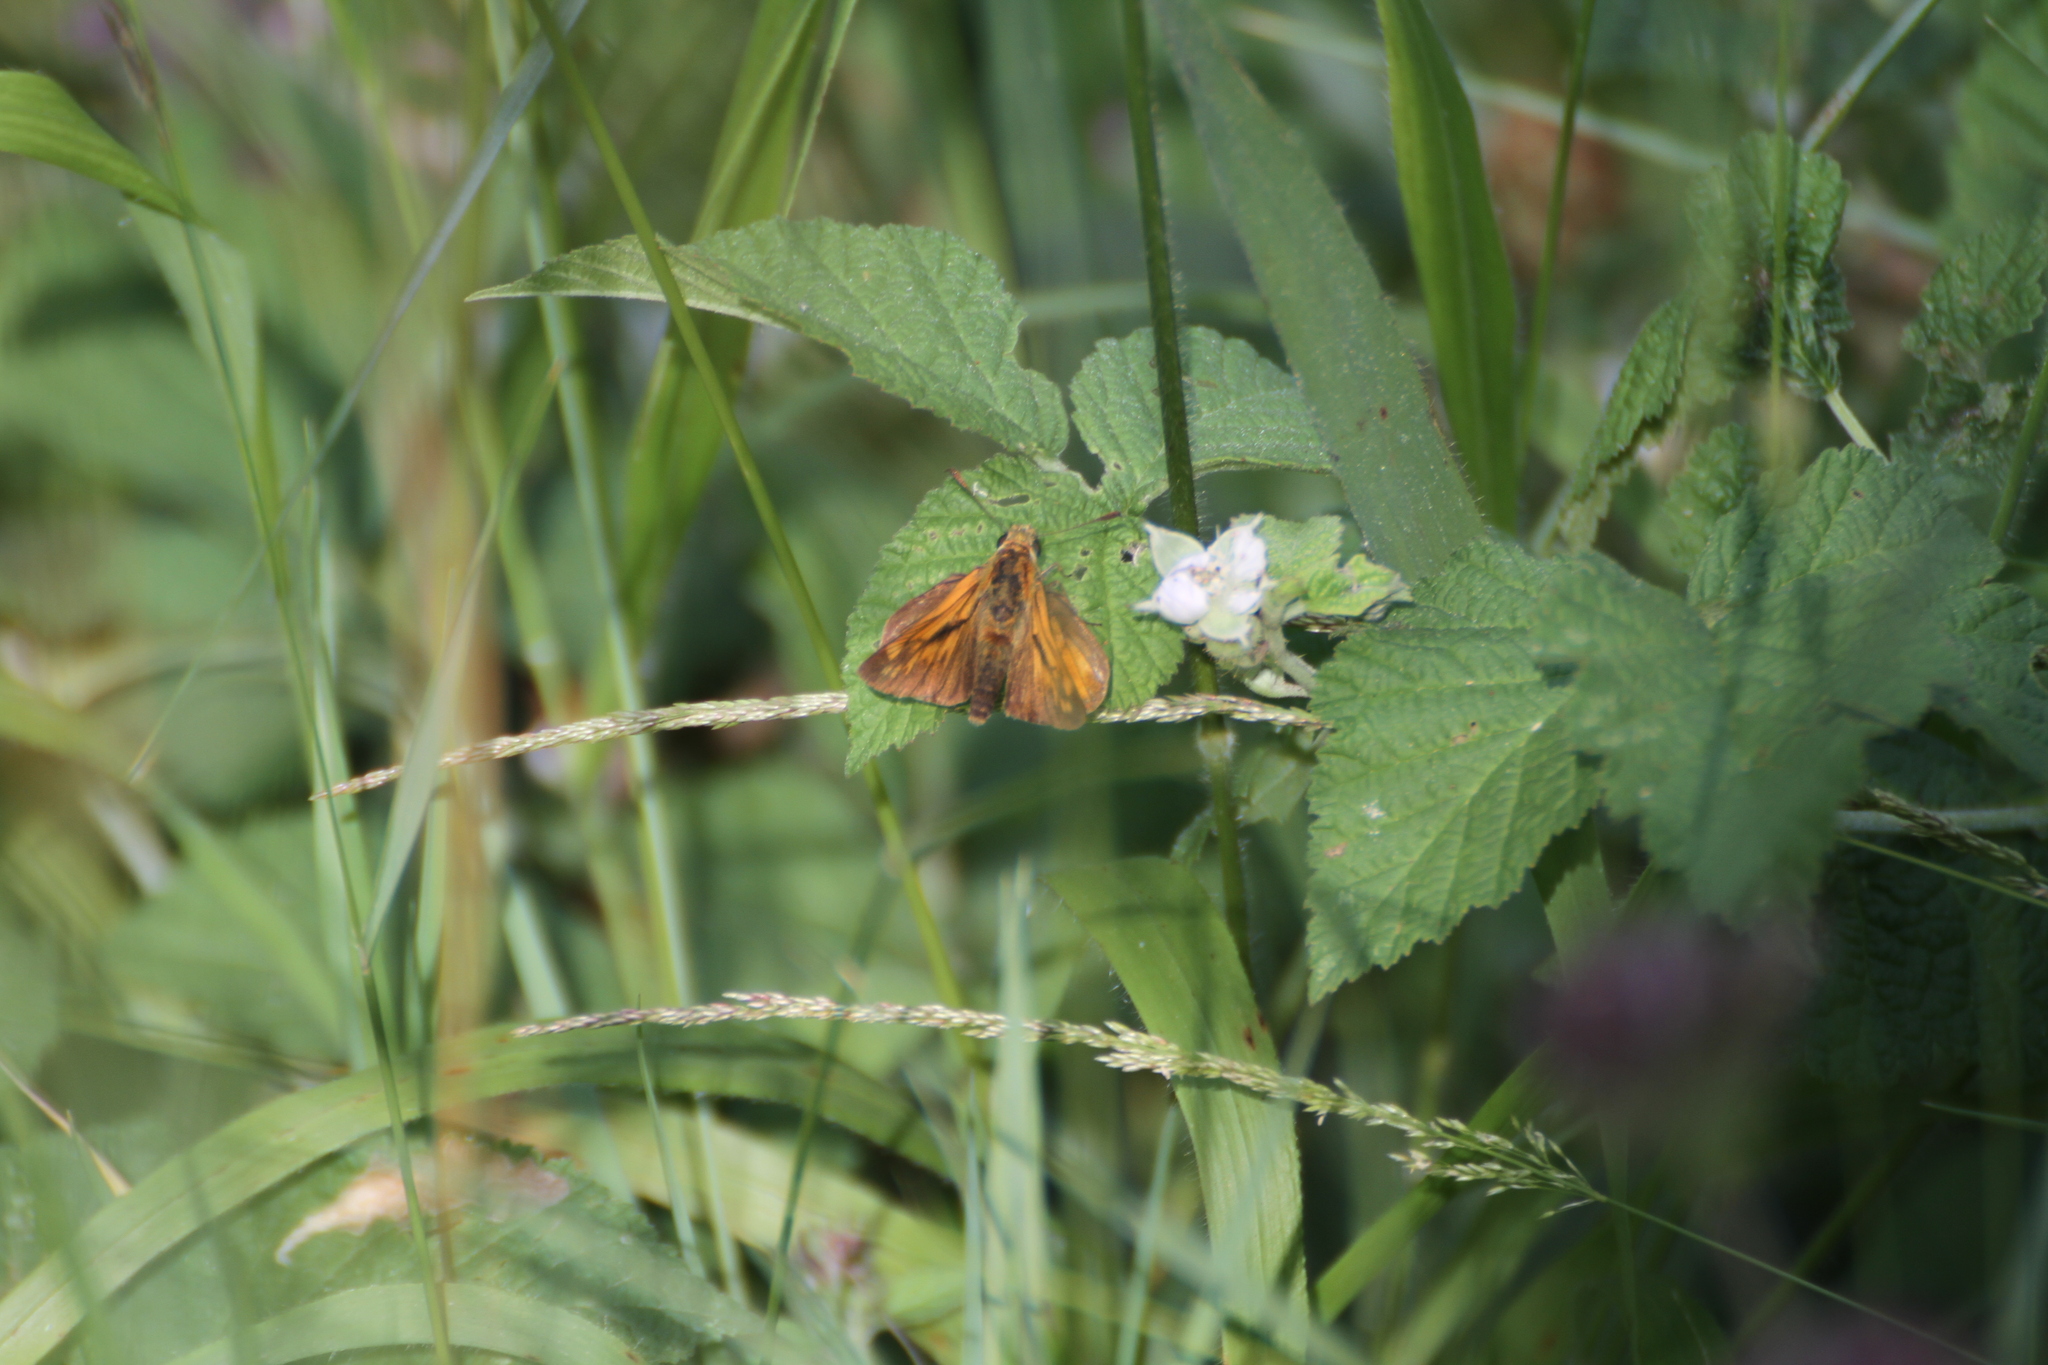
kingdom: Animalia
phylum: Arthropoda
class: Insecta
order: Lepidoptera
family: Hesperiidae
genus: Ochlodes
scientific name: Ochlodes venata
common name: Large skipper
